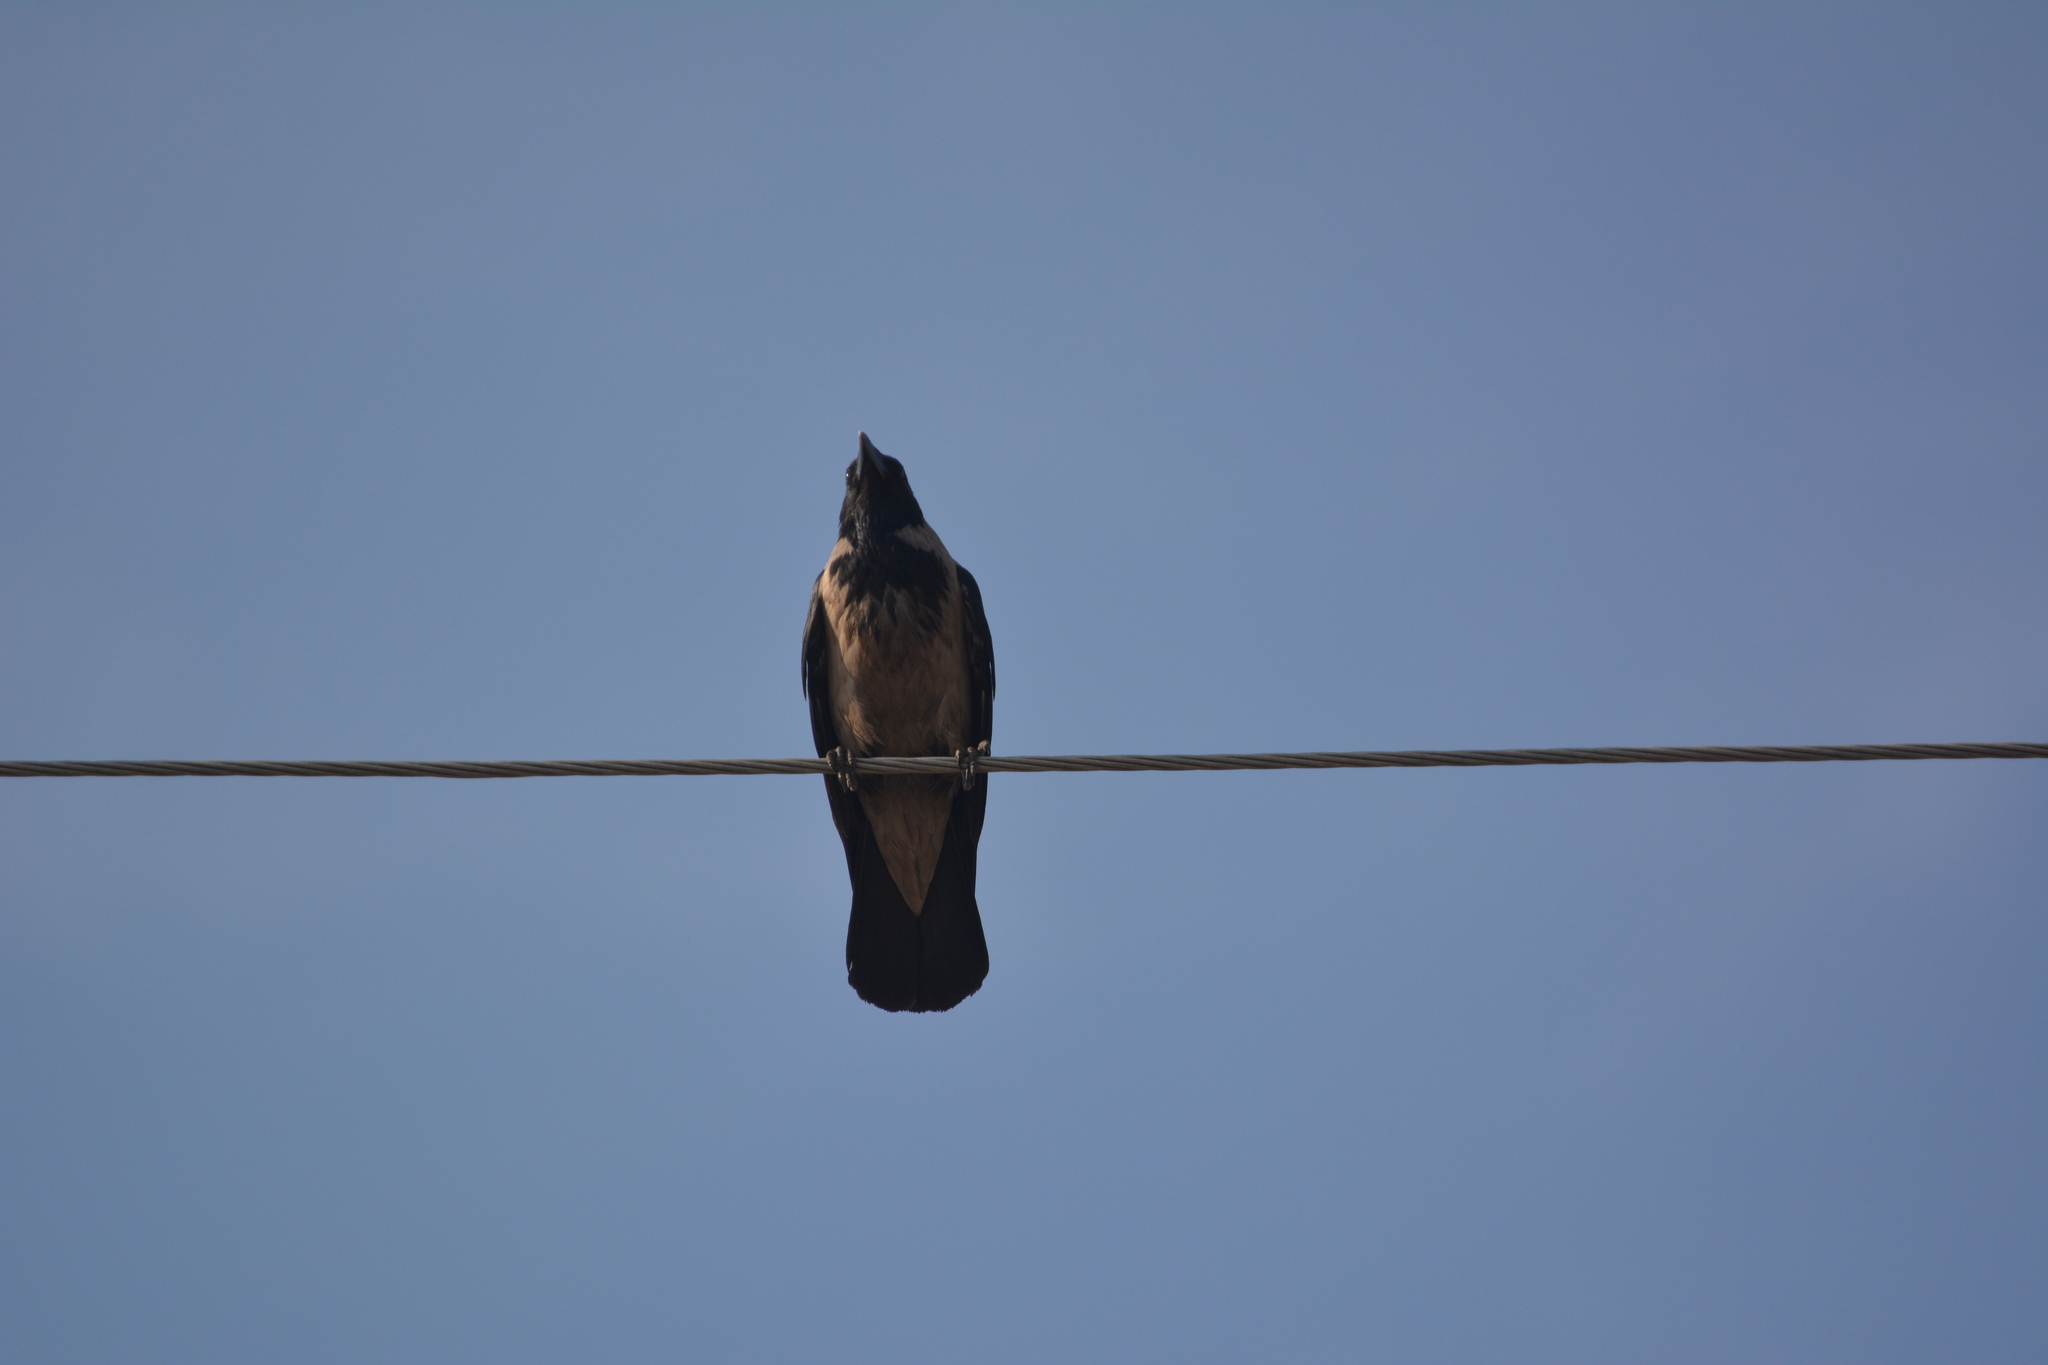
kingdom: Animalia
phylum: Chordata
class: Aves
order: Passeriformes
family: Corvidae
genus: Corvus
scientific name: Corvus cornix
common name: Hooded crow
